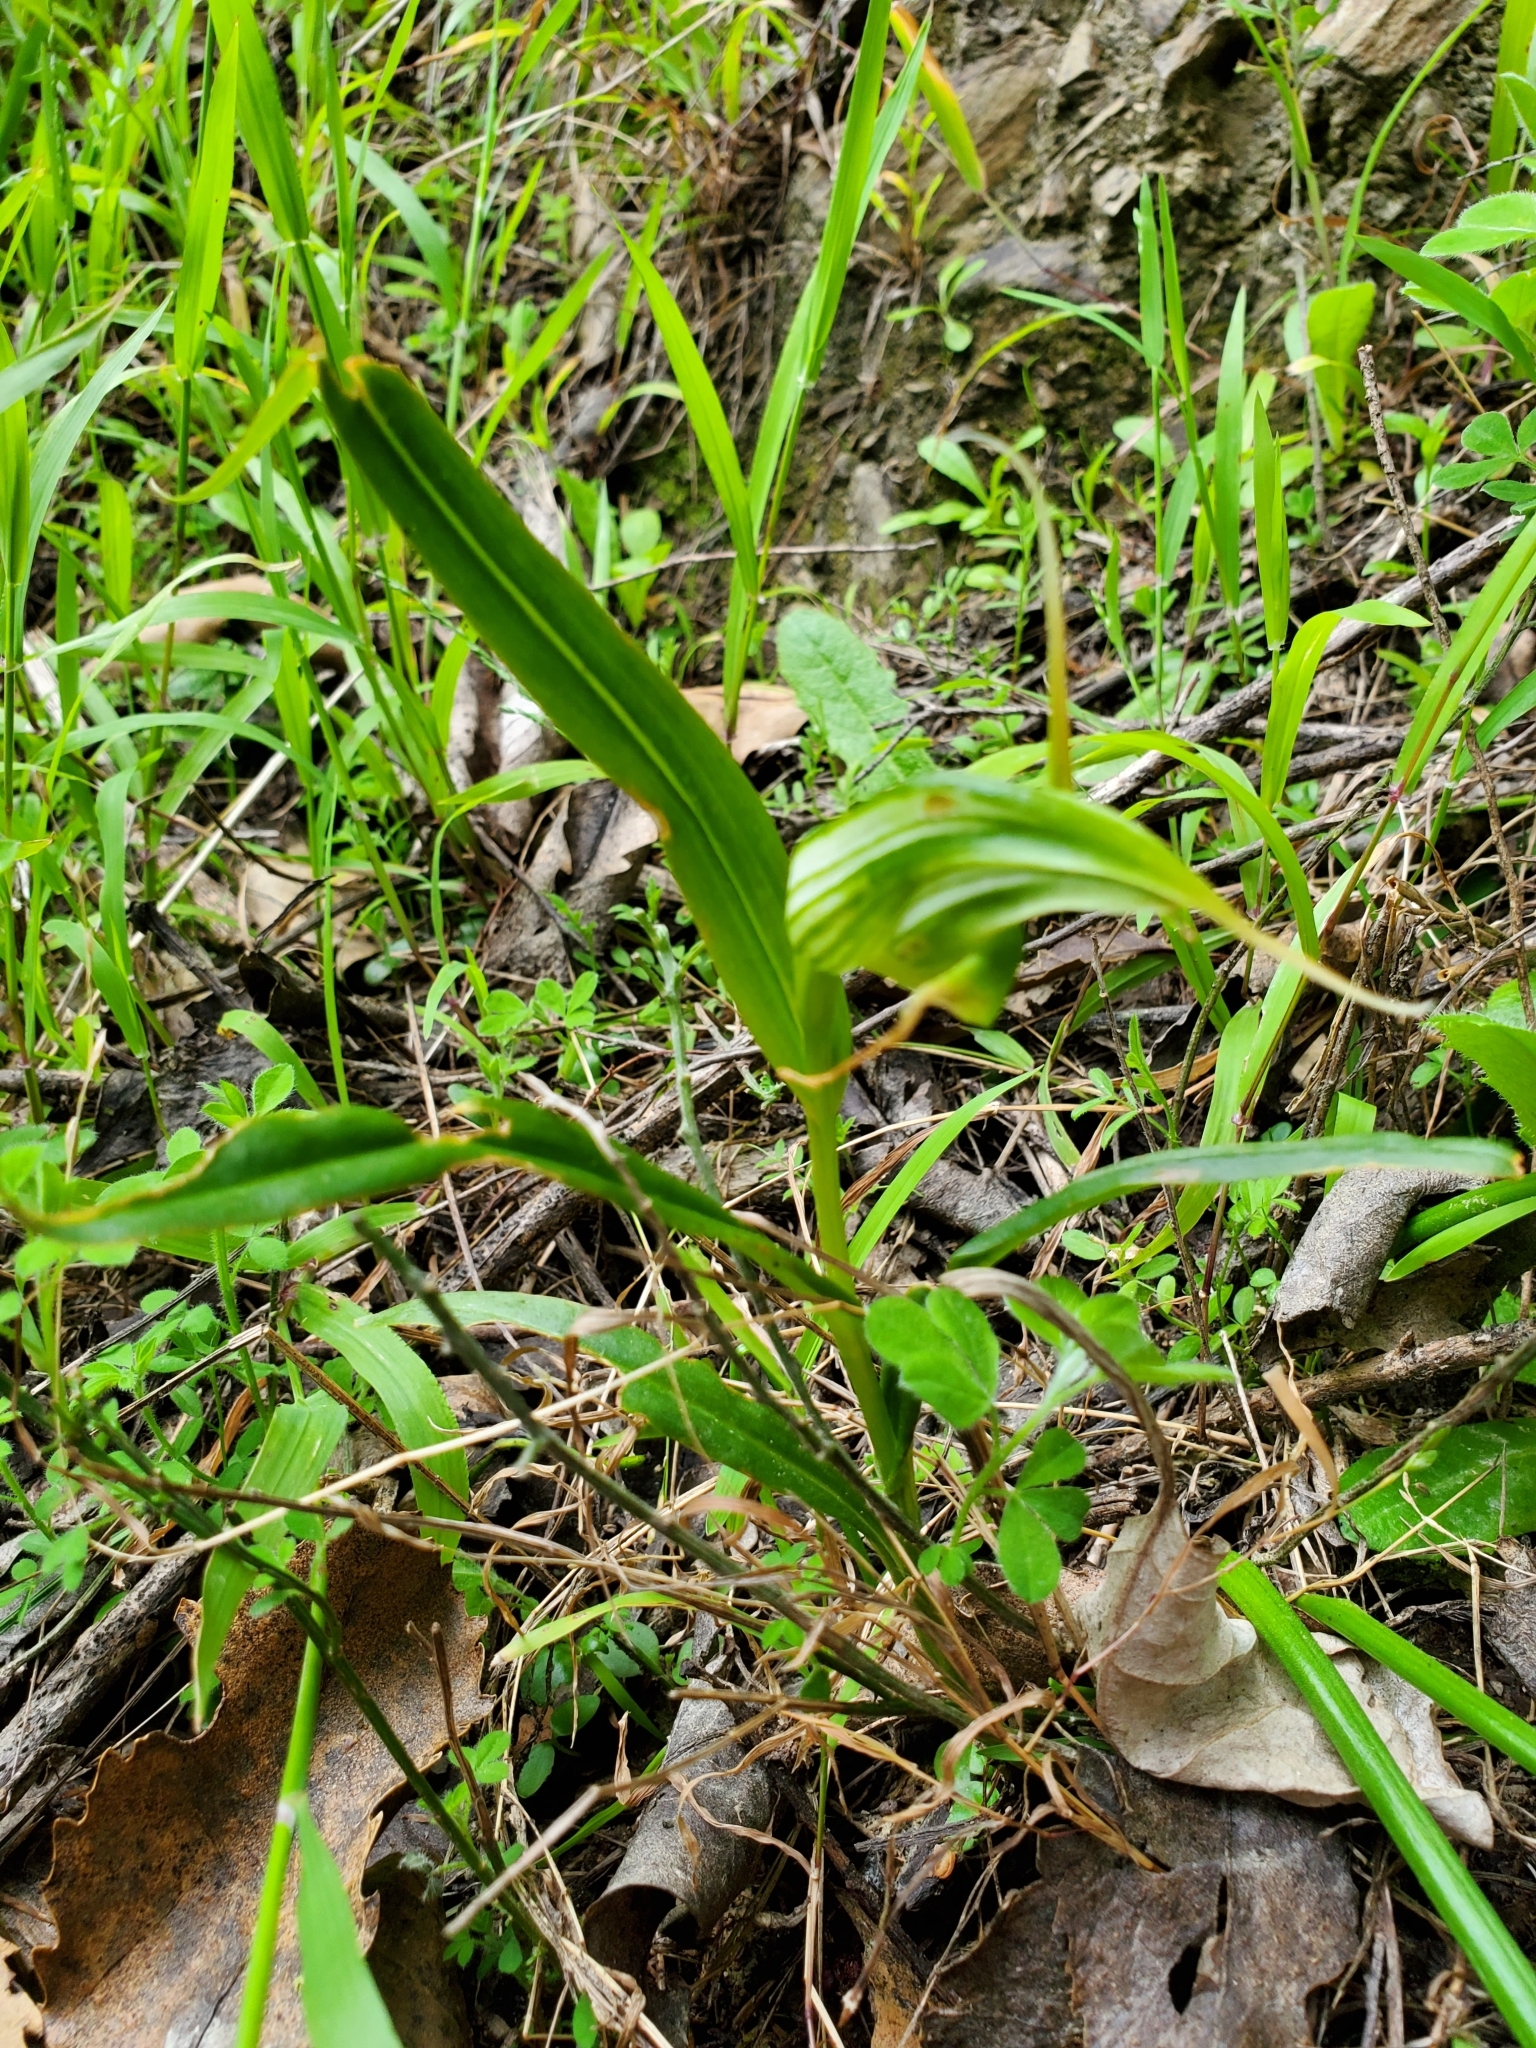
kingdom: Plantae
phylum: Tracheophyta
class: Liliopsida
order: Asparagales
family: Orchidaceae
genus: Pterostylis
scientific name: Pterostylis banksii
